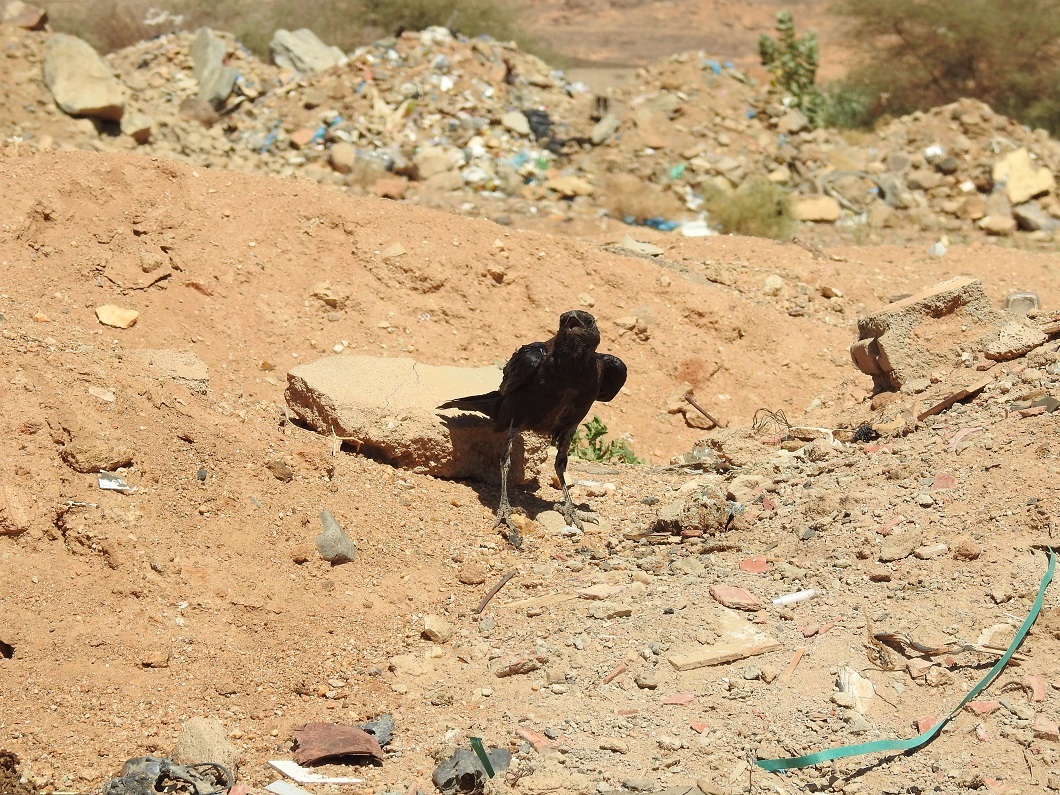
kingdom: Animalia
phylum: Chordata
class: Aves
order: Passeriformes
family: Corvidae
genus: Corvus
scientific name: Corvus ruficollis
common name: Brown-necked raven
